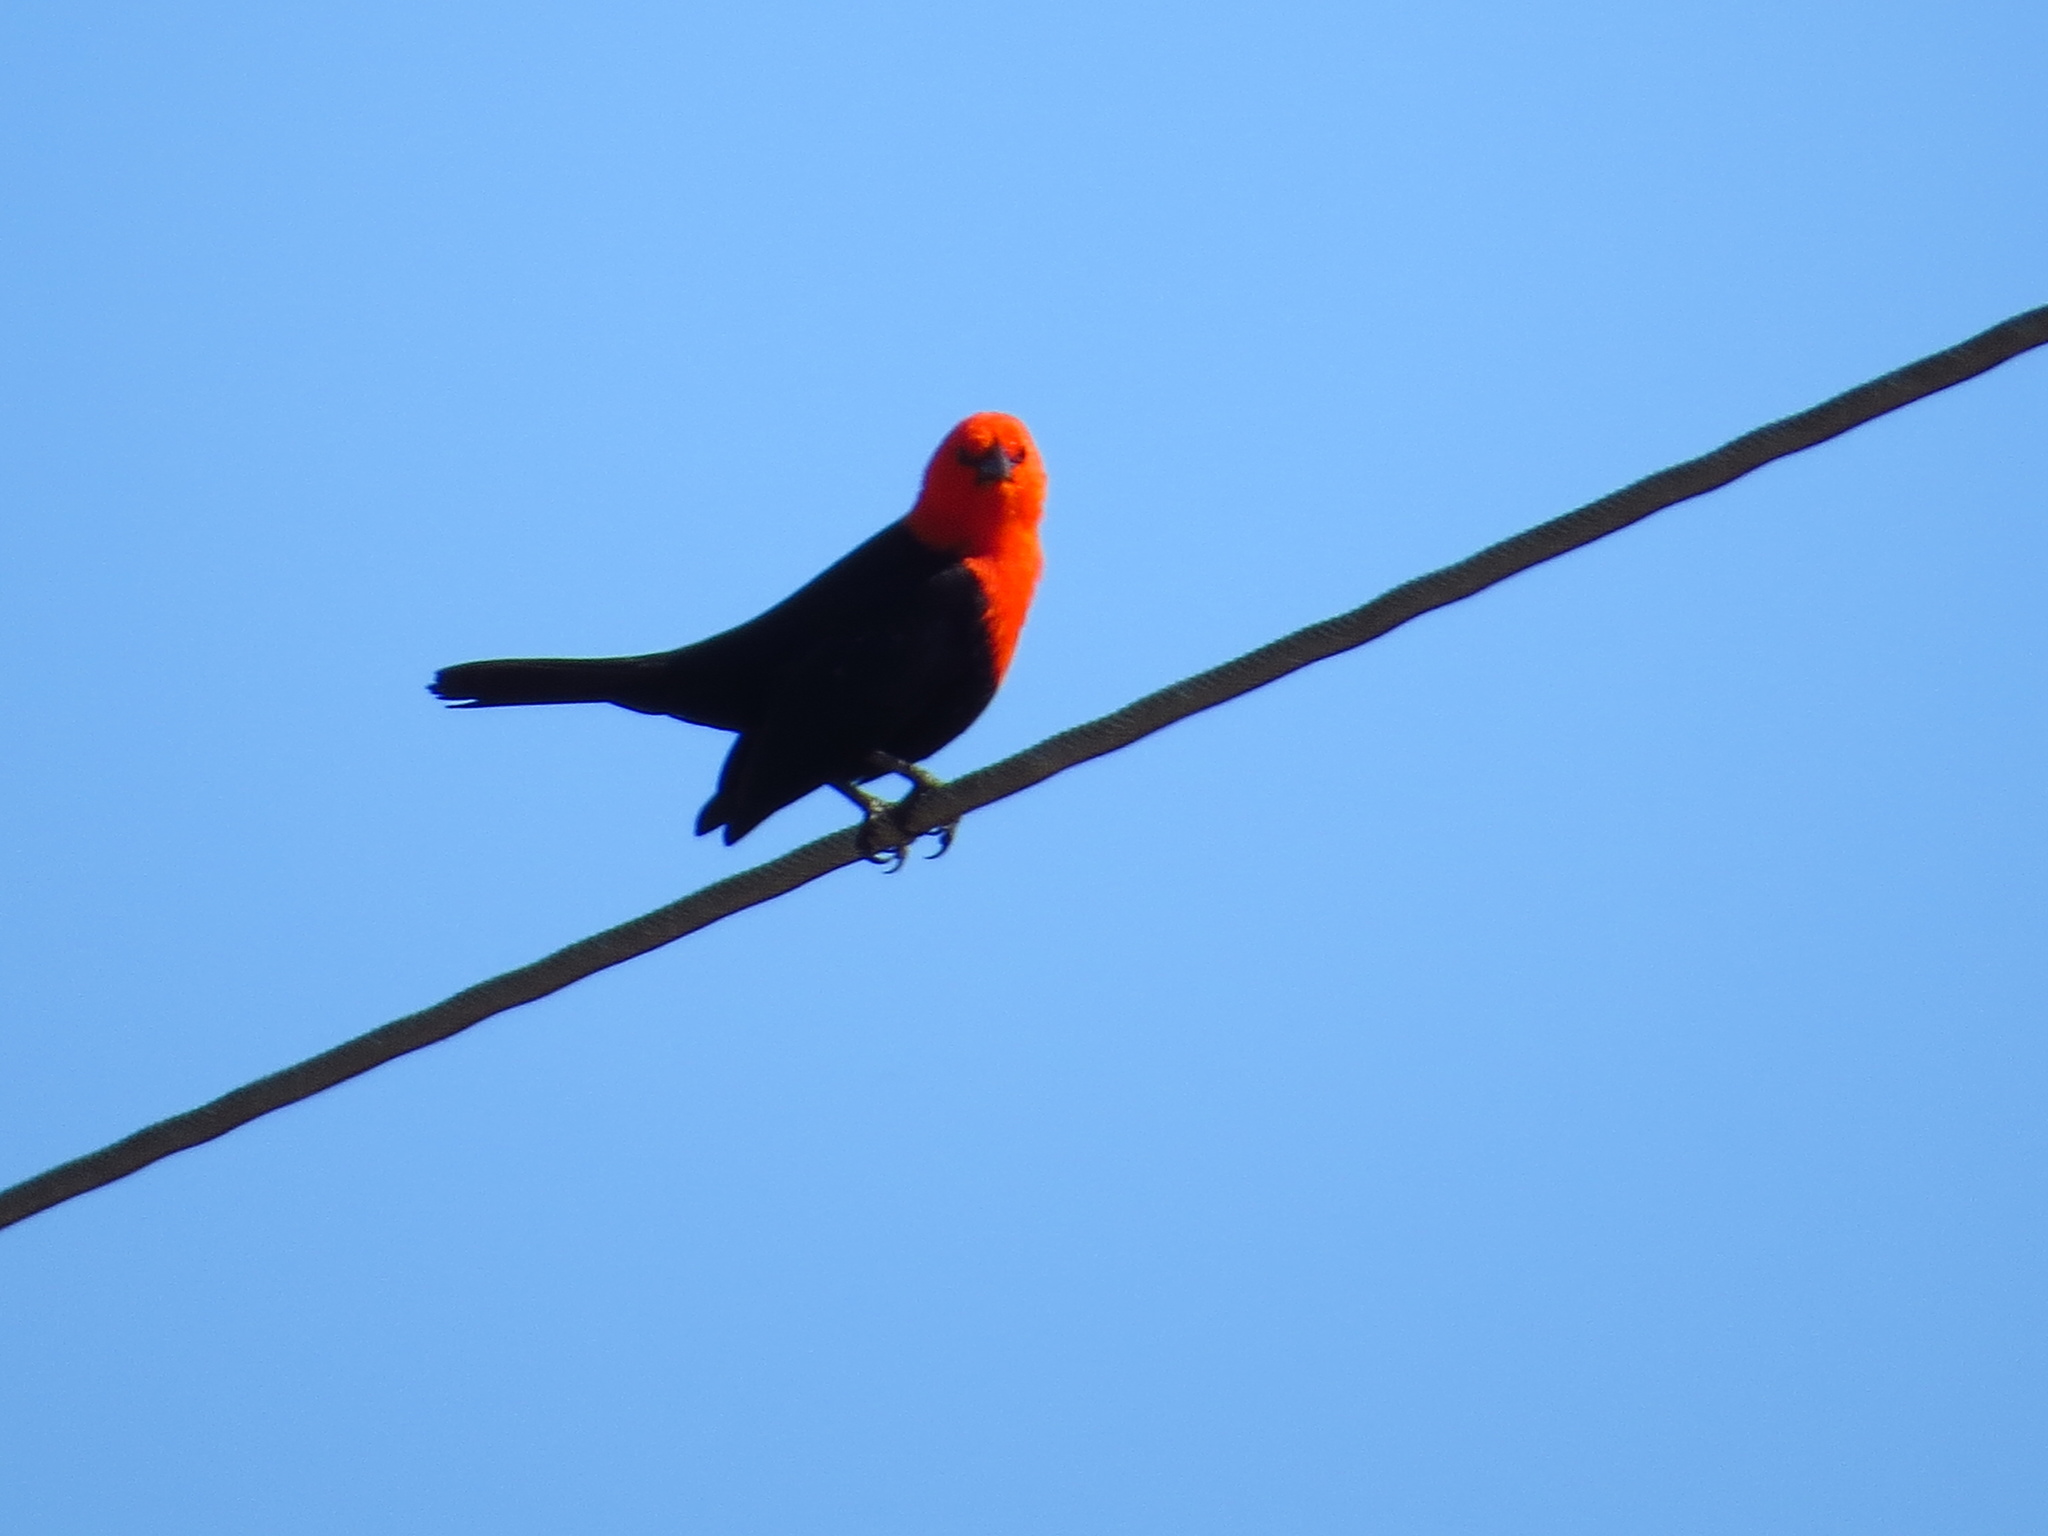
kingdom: Animalia
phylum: Chordata
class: Aves
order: Passeriformes
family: Icteridae
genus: Amblyramphus
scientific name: Amblyramphus holosericeus
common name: Scarlet-headed blackbird
